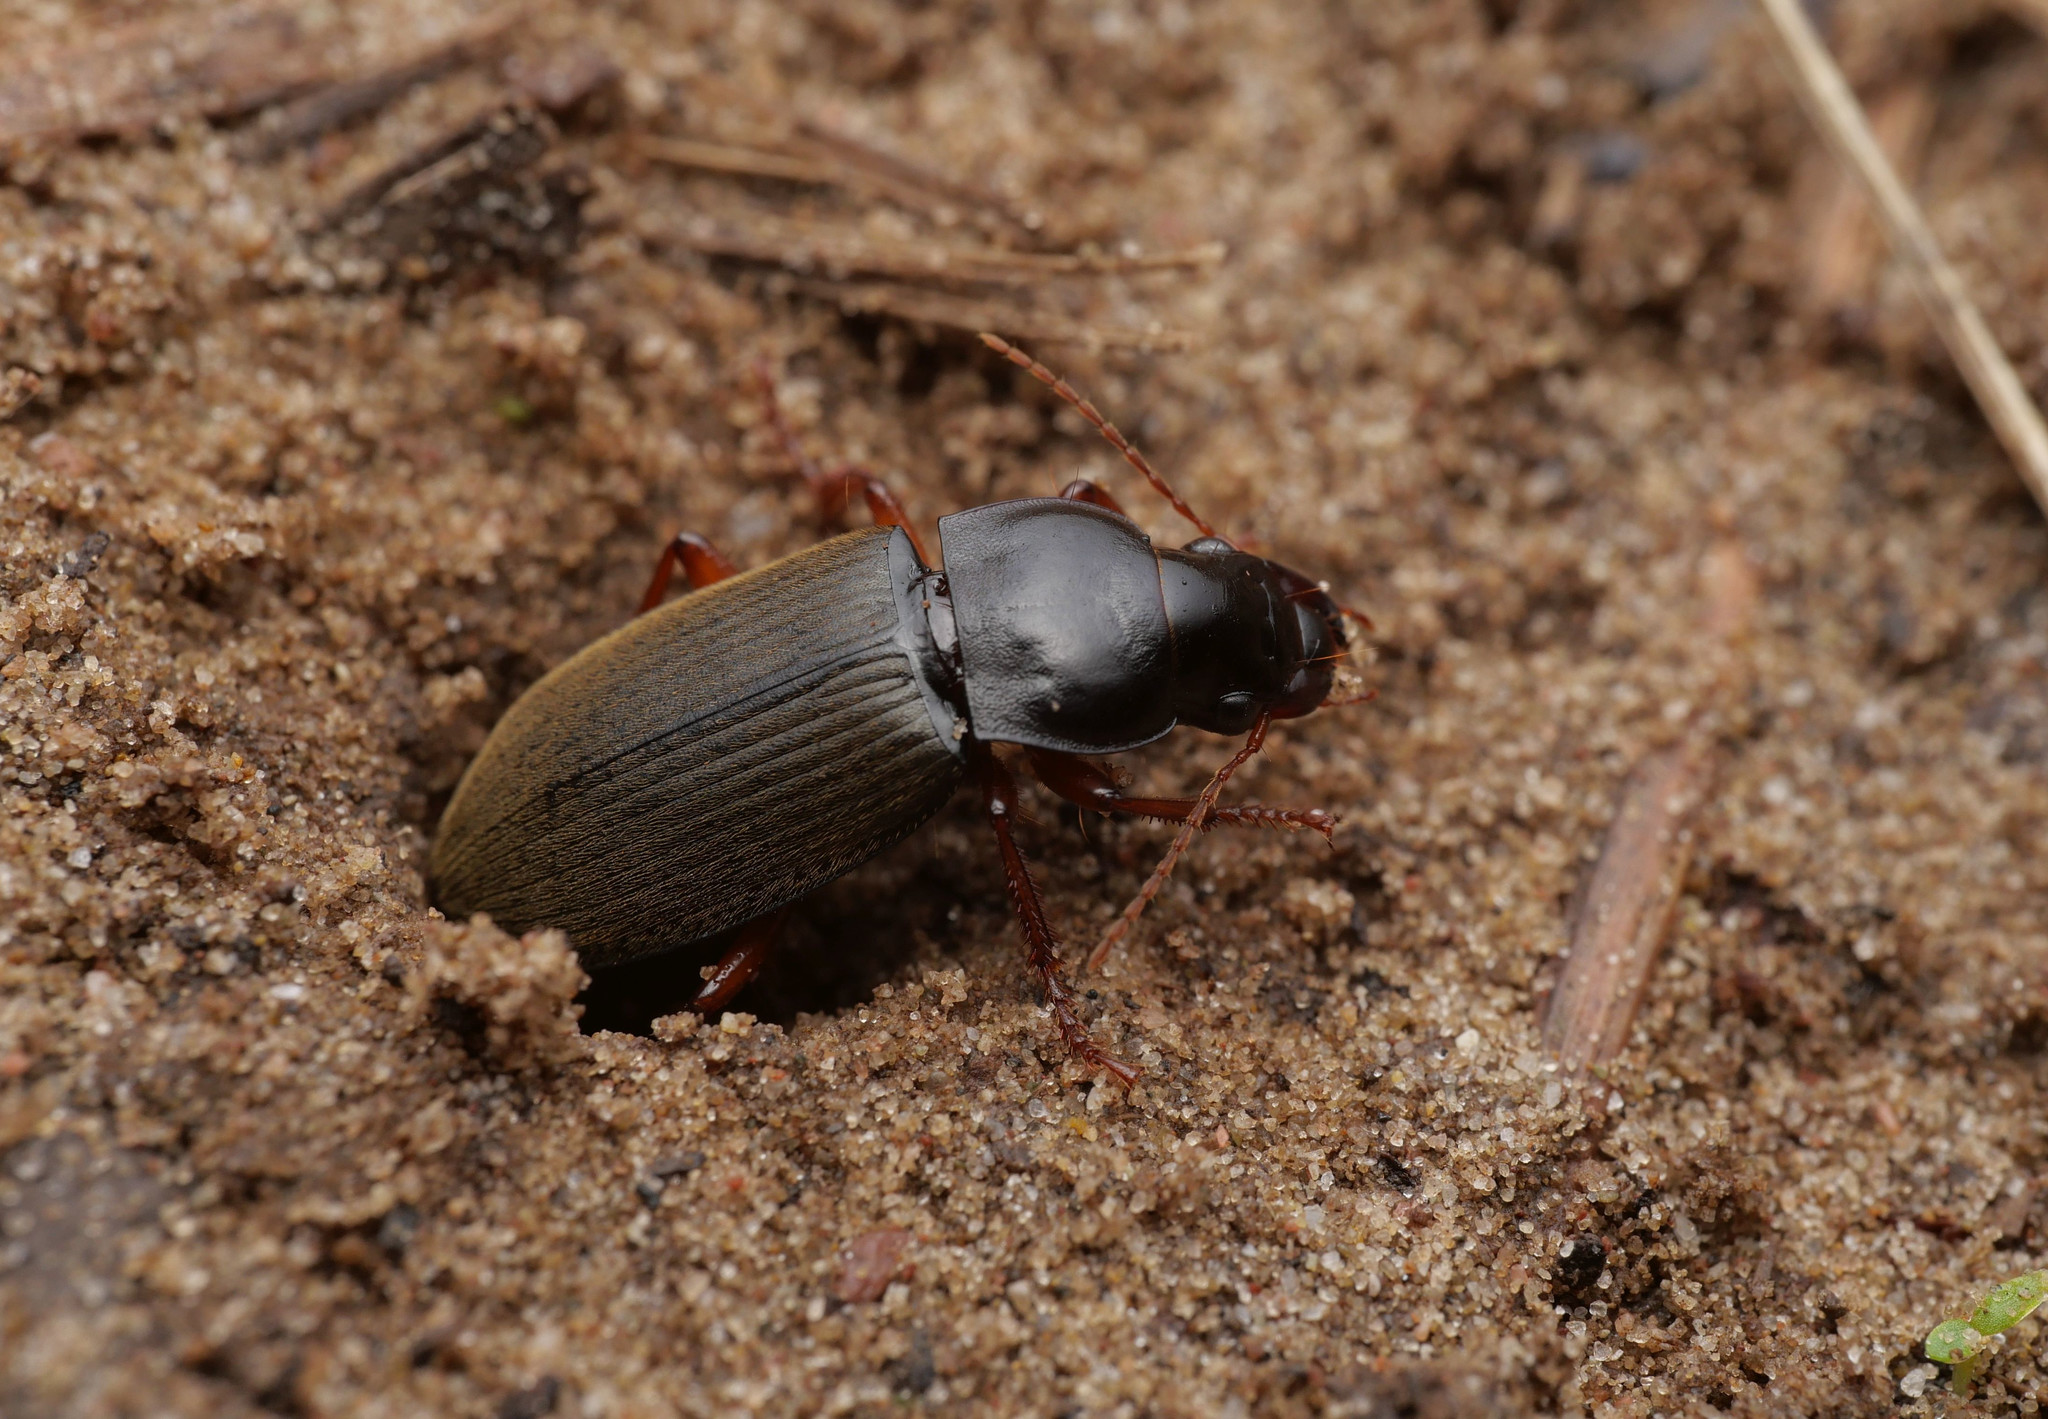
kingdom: Animalia
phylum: Arthropoda
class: Insecta
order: Coleoptera
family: Carabidae
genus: Harpalus
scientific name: Harpalus rufipes
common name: Strawberry harp ground beetle
